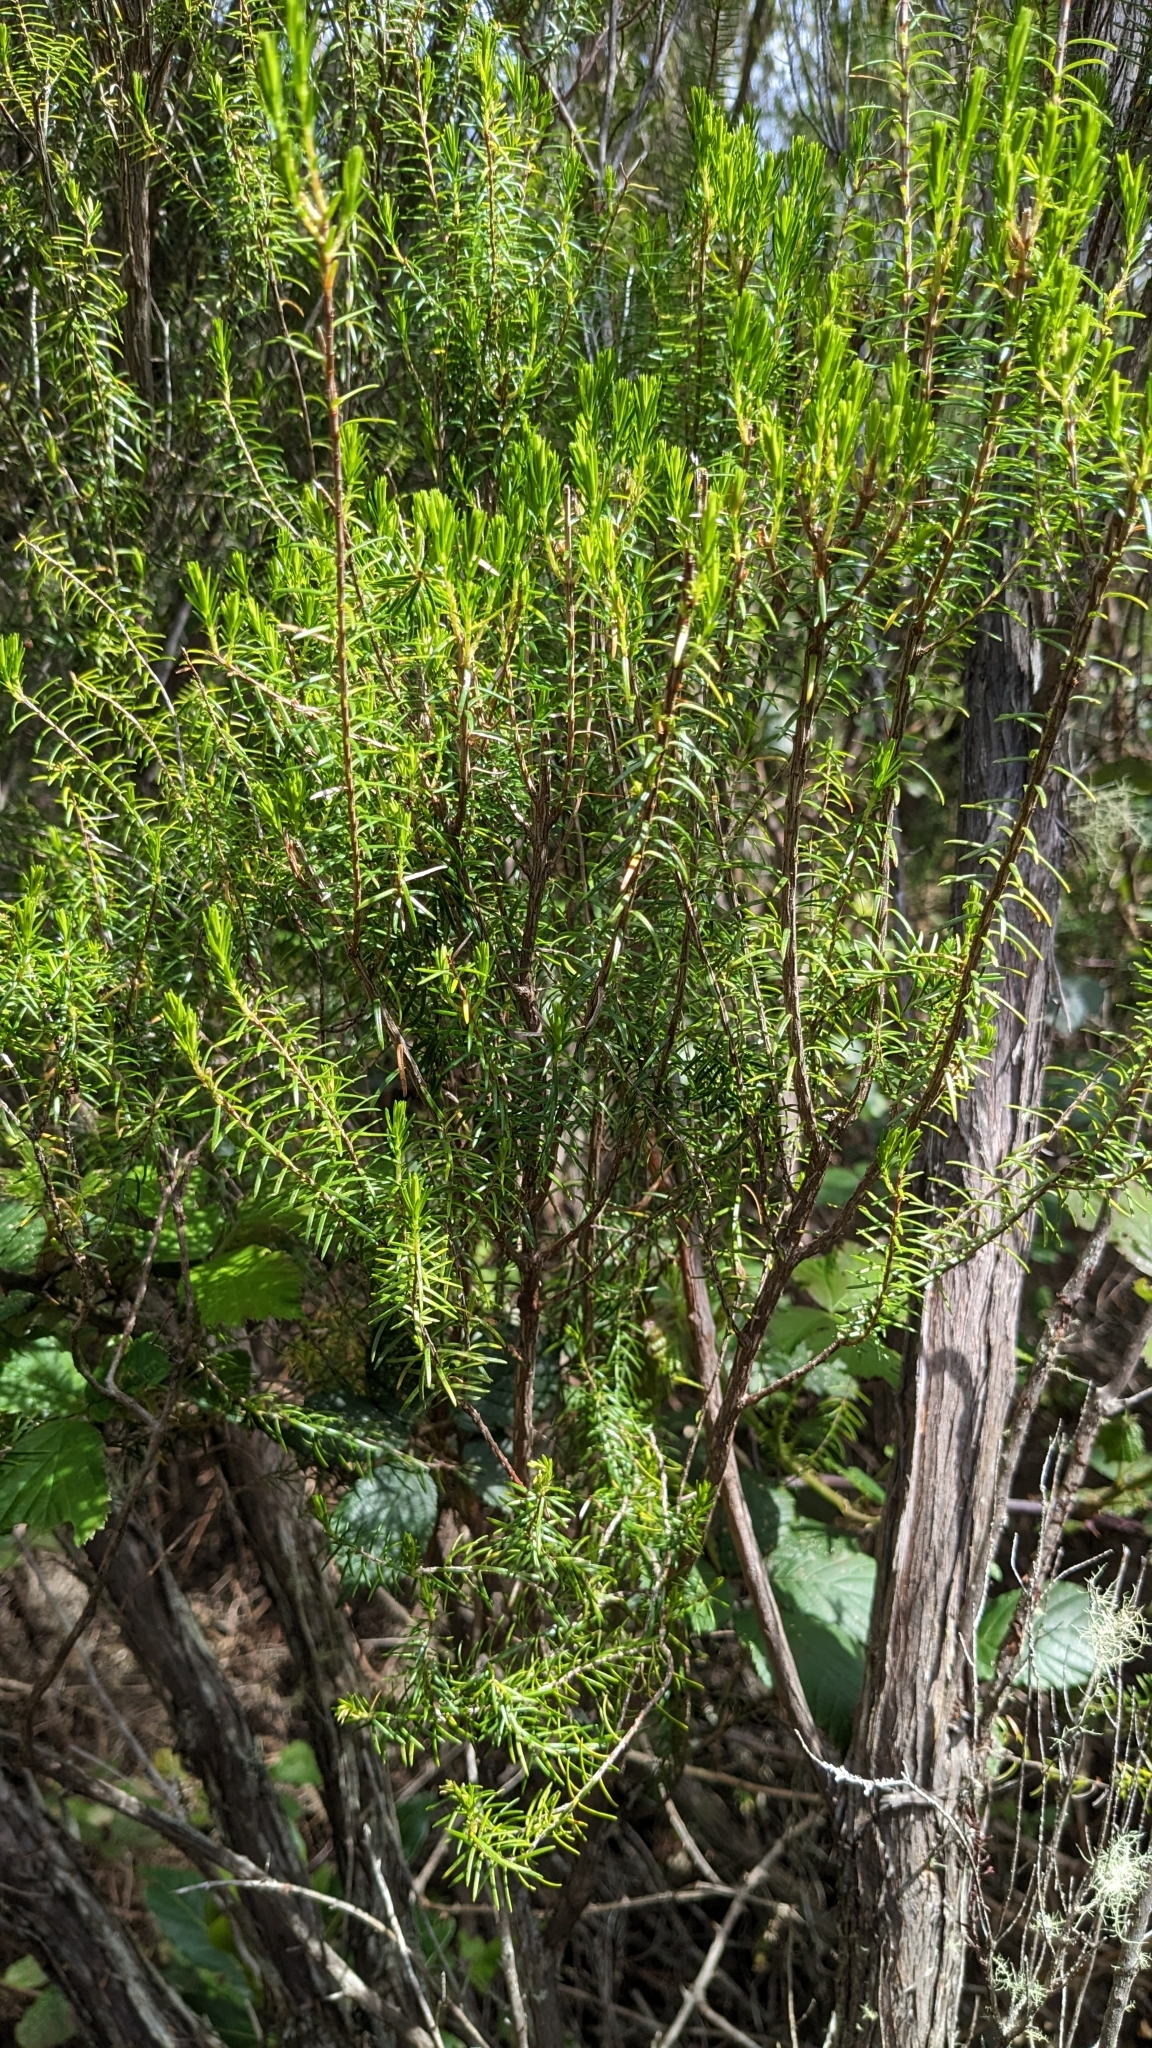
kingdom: Plantae
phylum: Tracheophyta
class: Magnoliopsida
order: Ericales
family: Ericaceae
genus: Erica
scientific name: Erica platycodon
